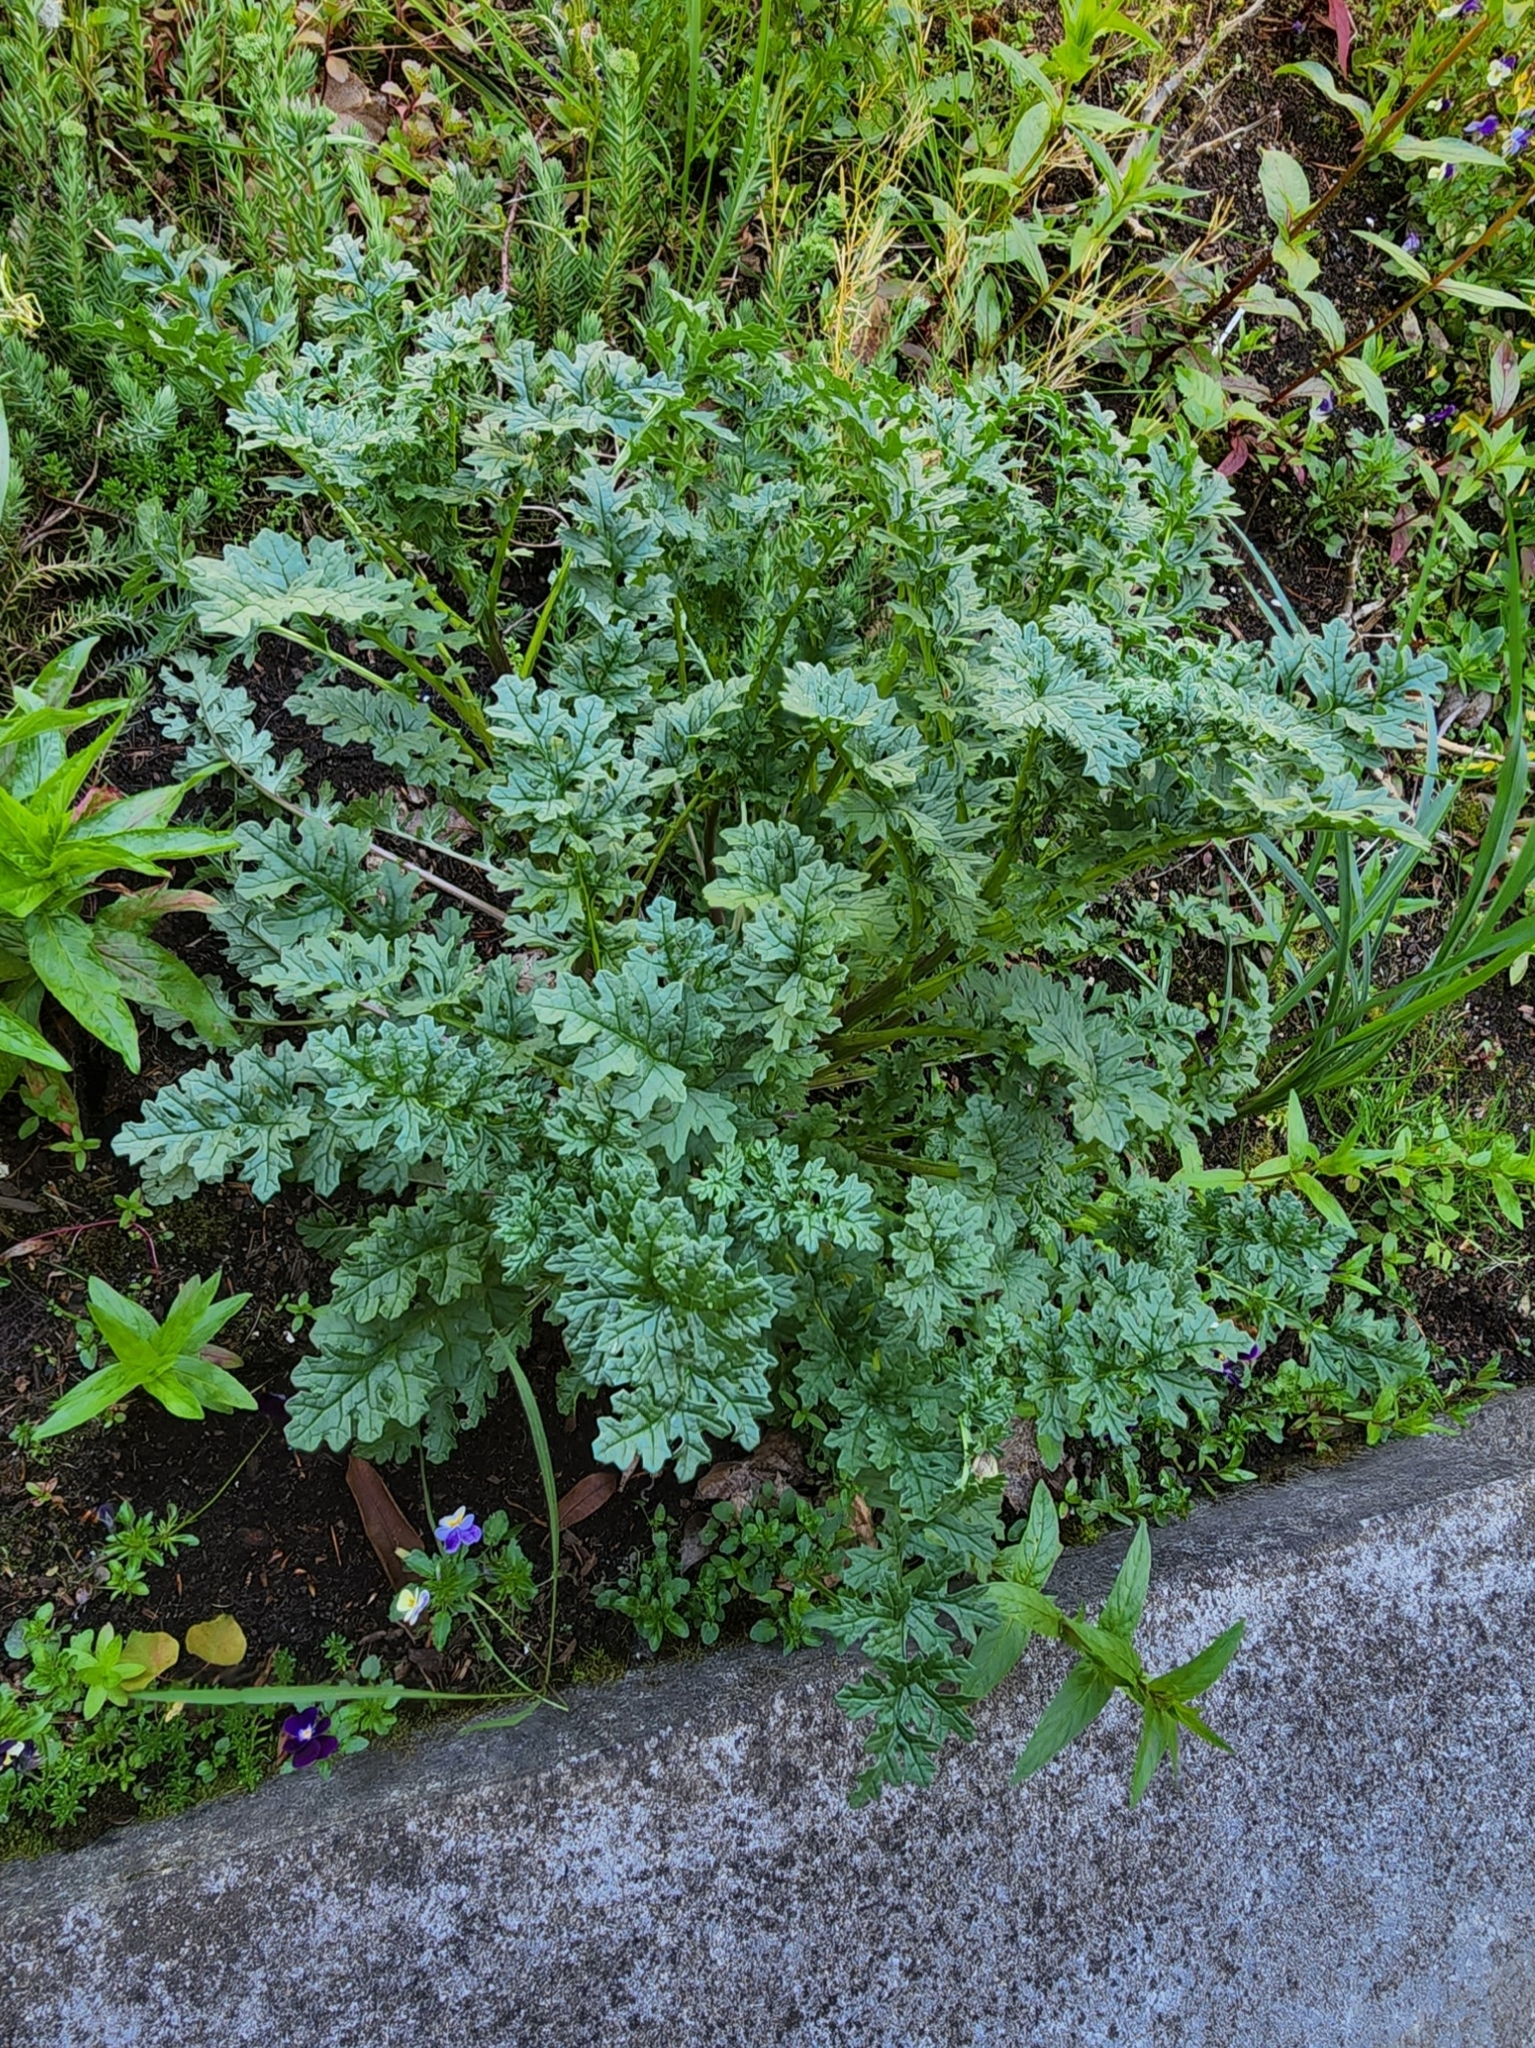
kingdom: Plantae
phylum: Tracheophyta
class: Magnoliopsida
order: Asterales
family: Asteraceae
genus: Jacobaea
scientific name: Jacobaea vulgaris
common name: Stinking willie
